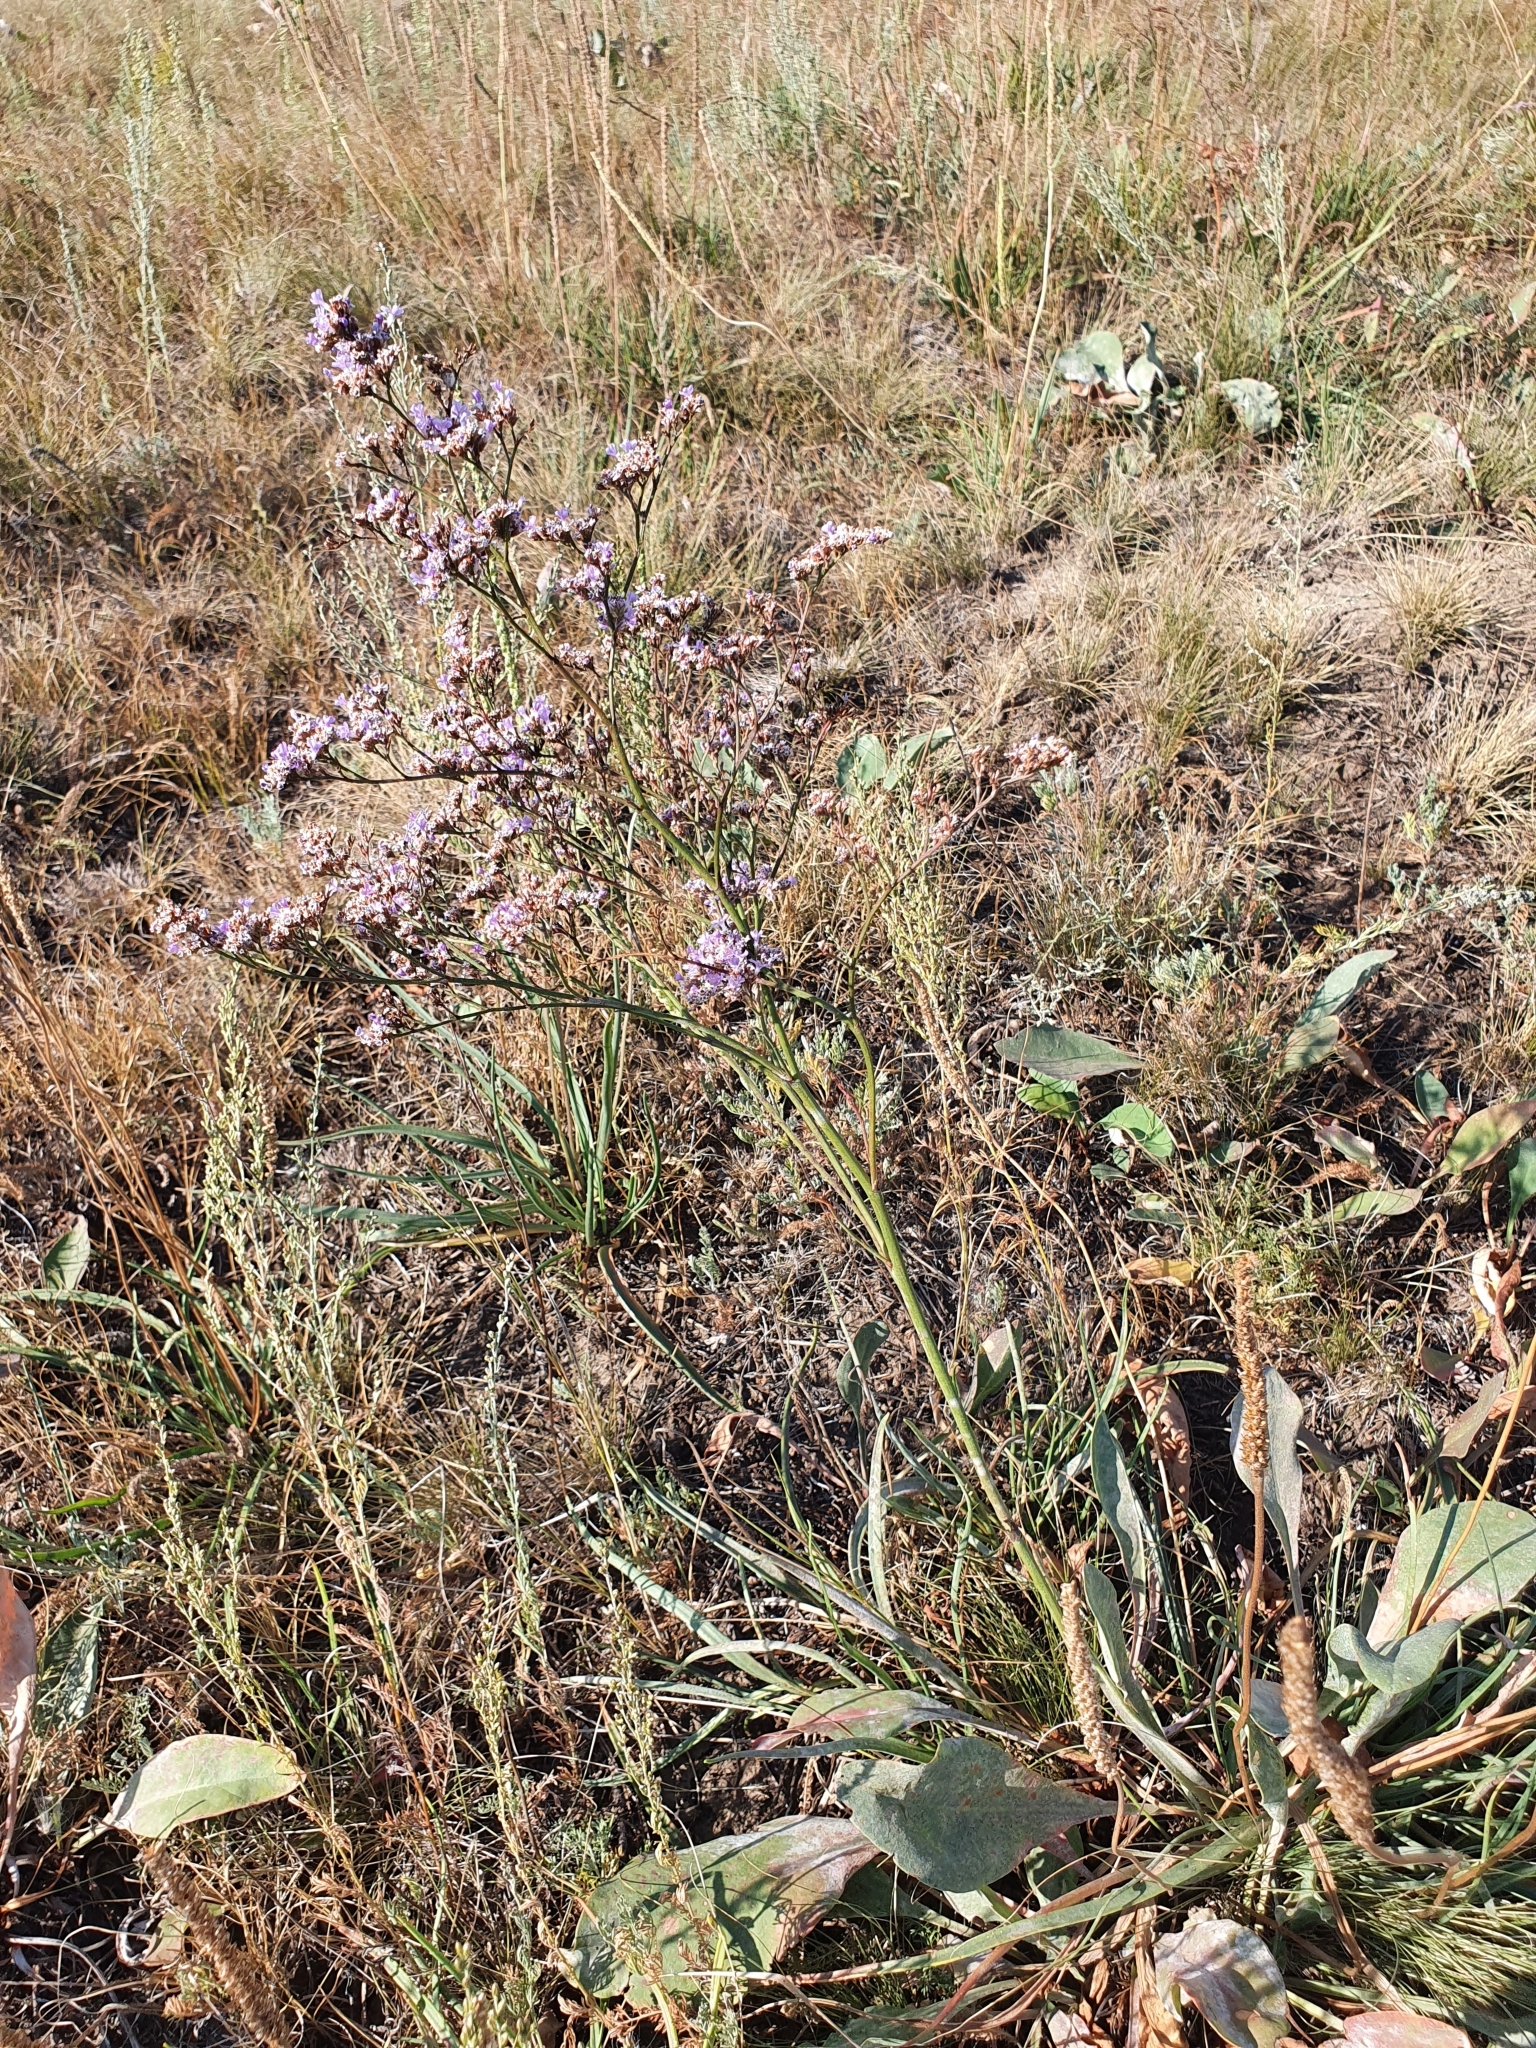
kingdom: Plantae
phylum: Tracheophyta
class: Magnoliopsida
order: Caryophyllales
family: Plumbaginaceae
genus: Limonium
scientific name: Limonium gmelini
